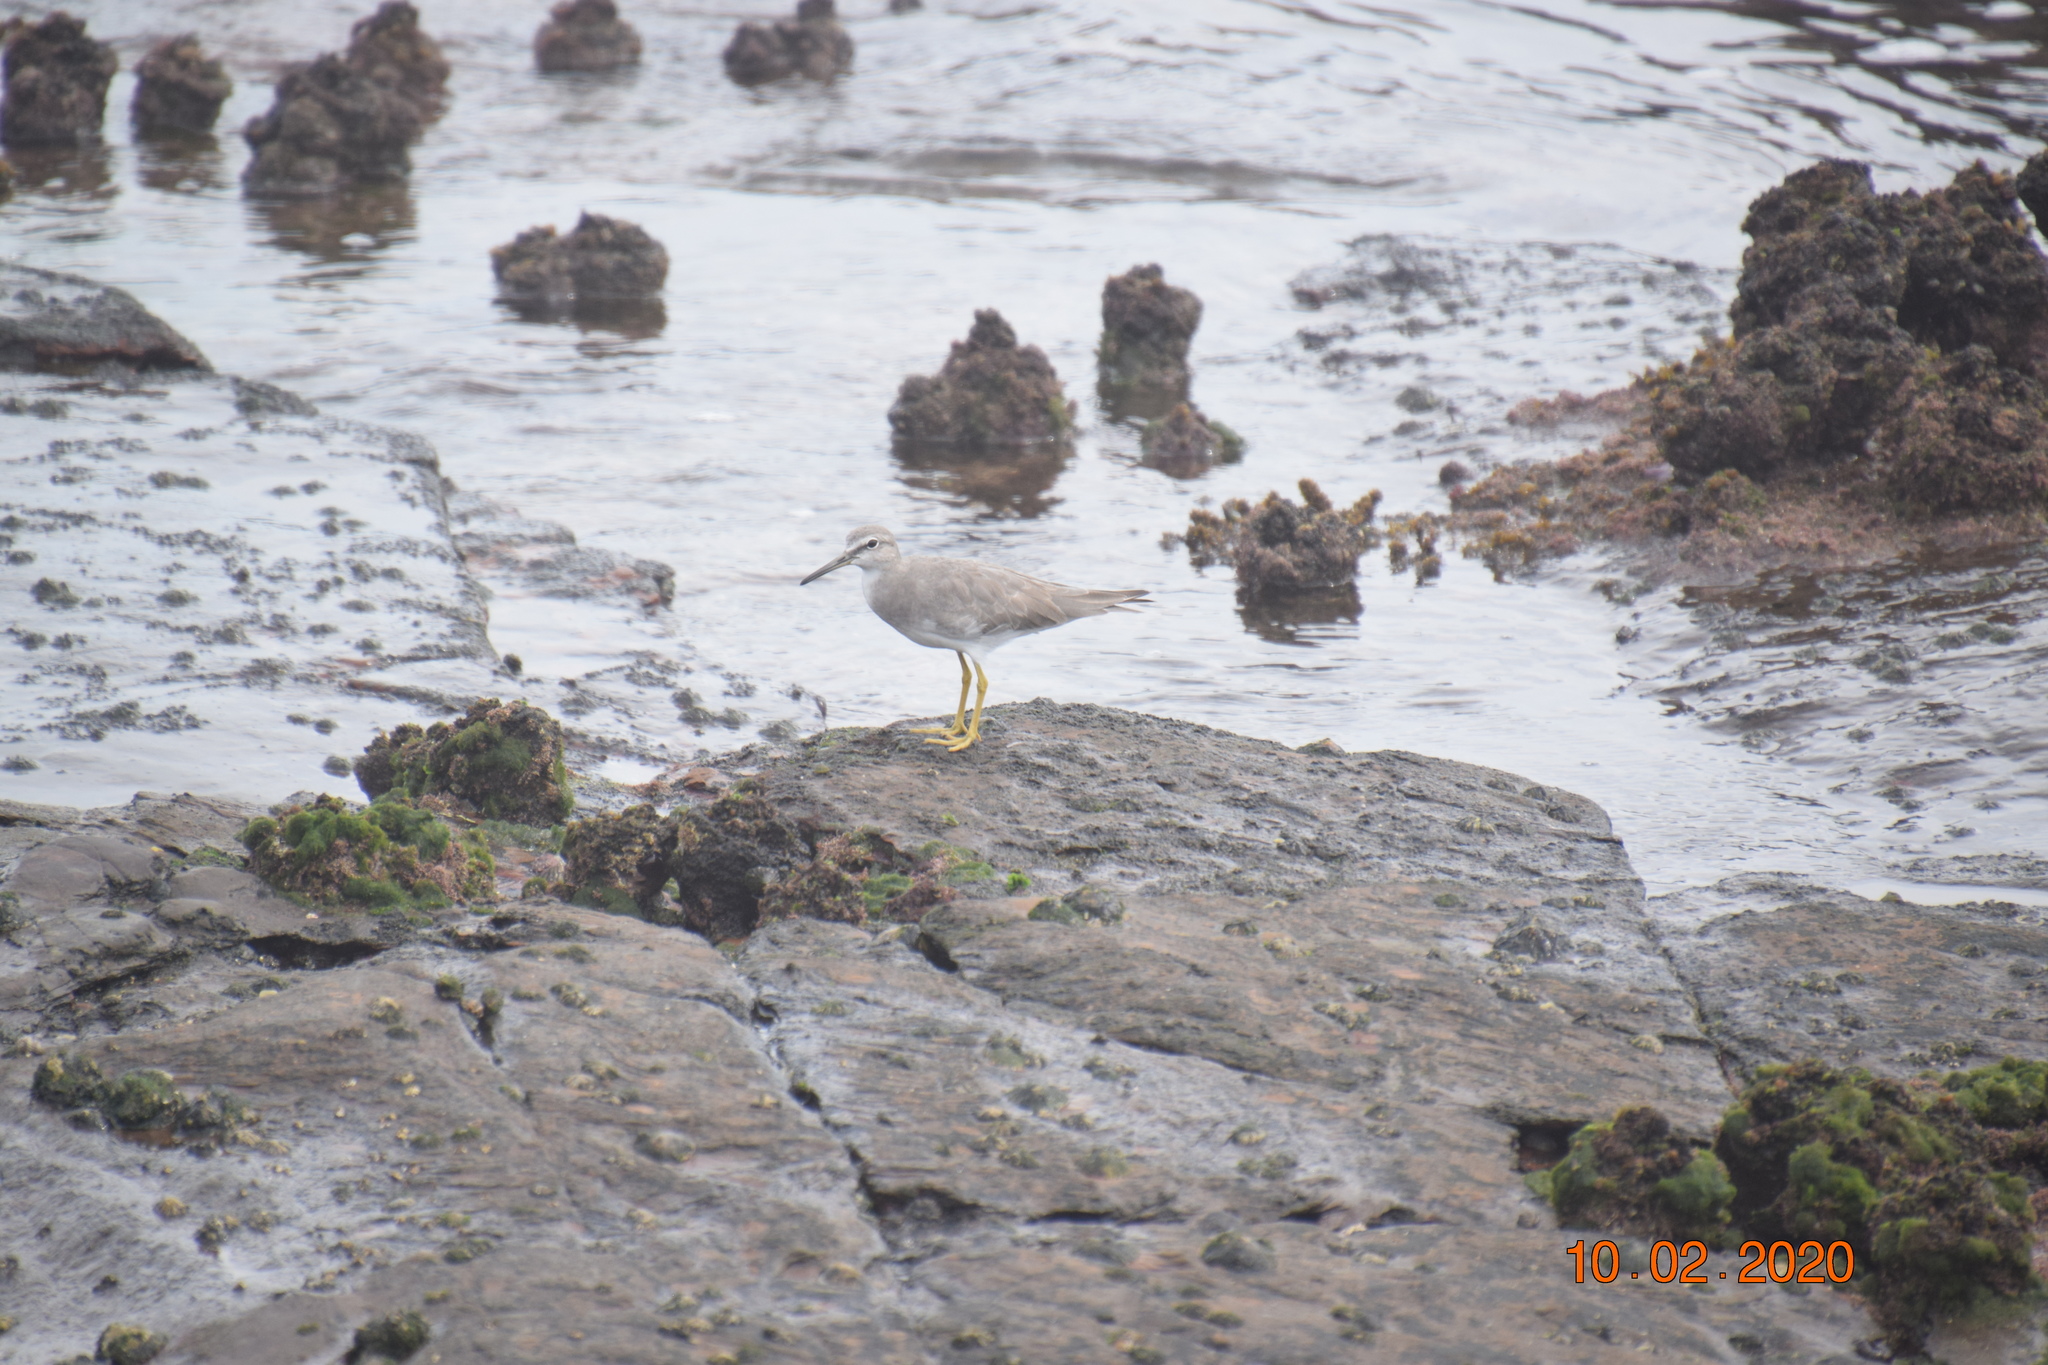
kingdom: Animalia
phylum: Chordata
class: Aves
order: Charadriiformes
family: Scolopacidae
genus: Tringa
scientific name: Tringa brevipes
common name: Grey-tailed tattler
